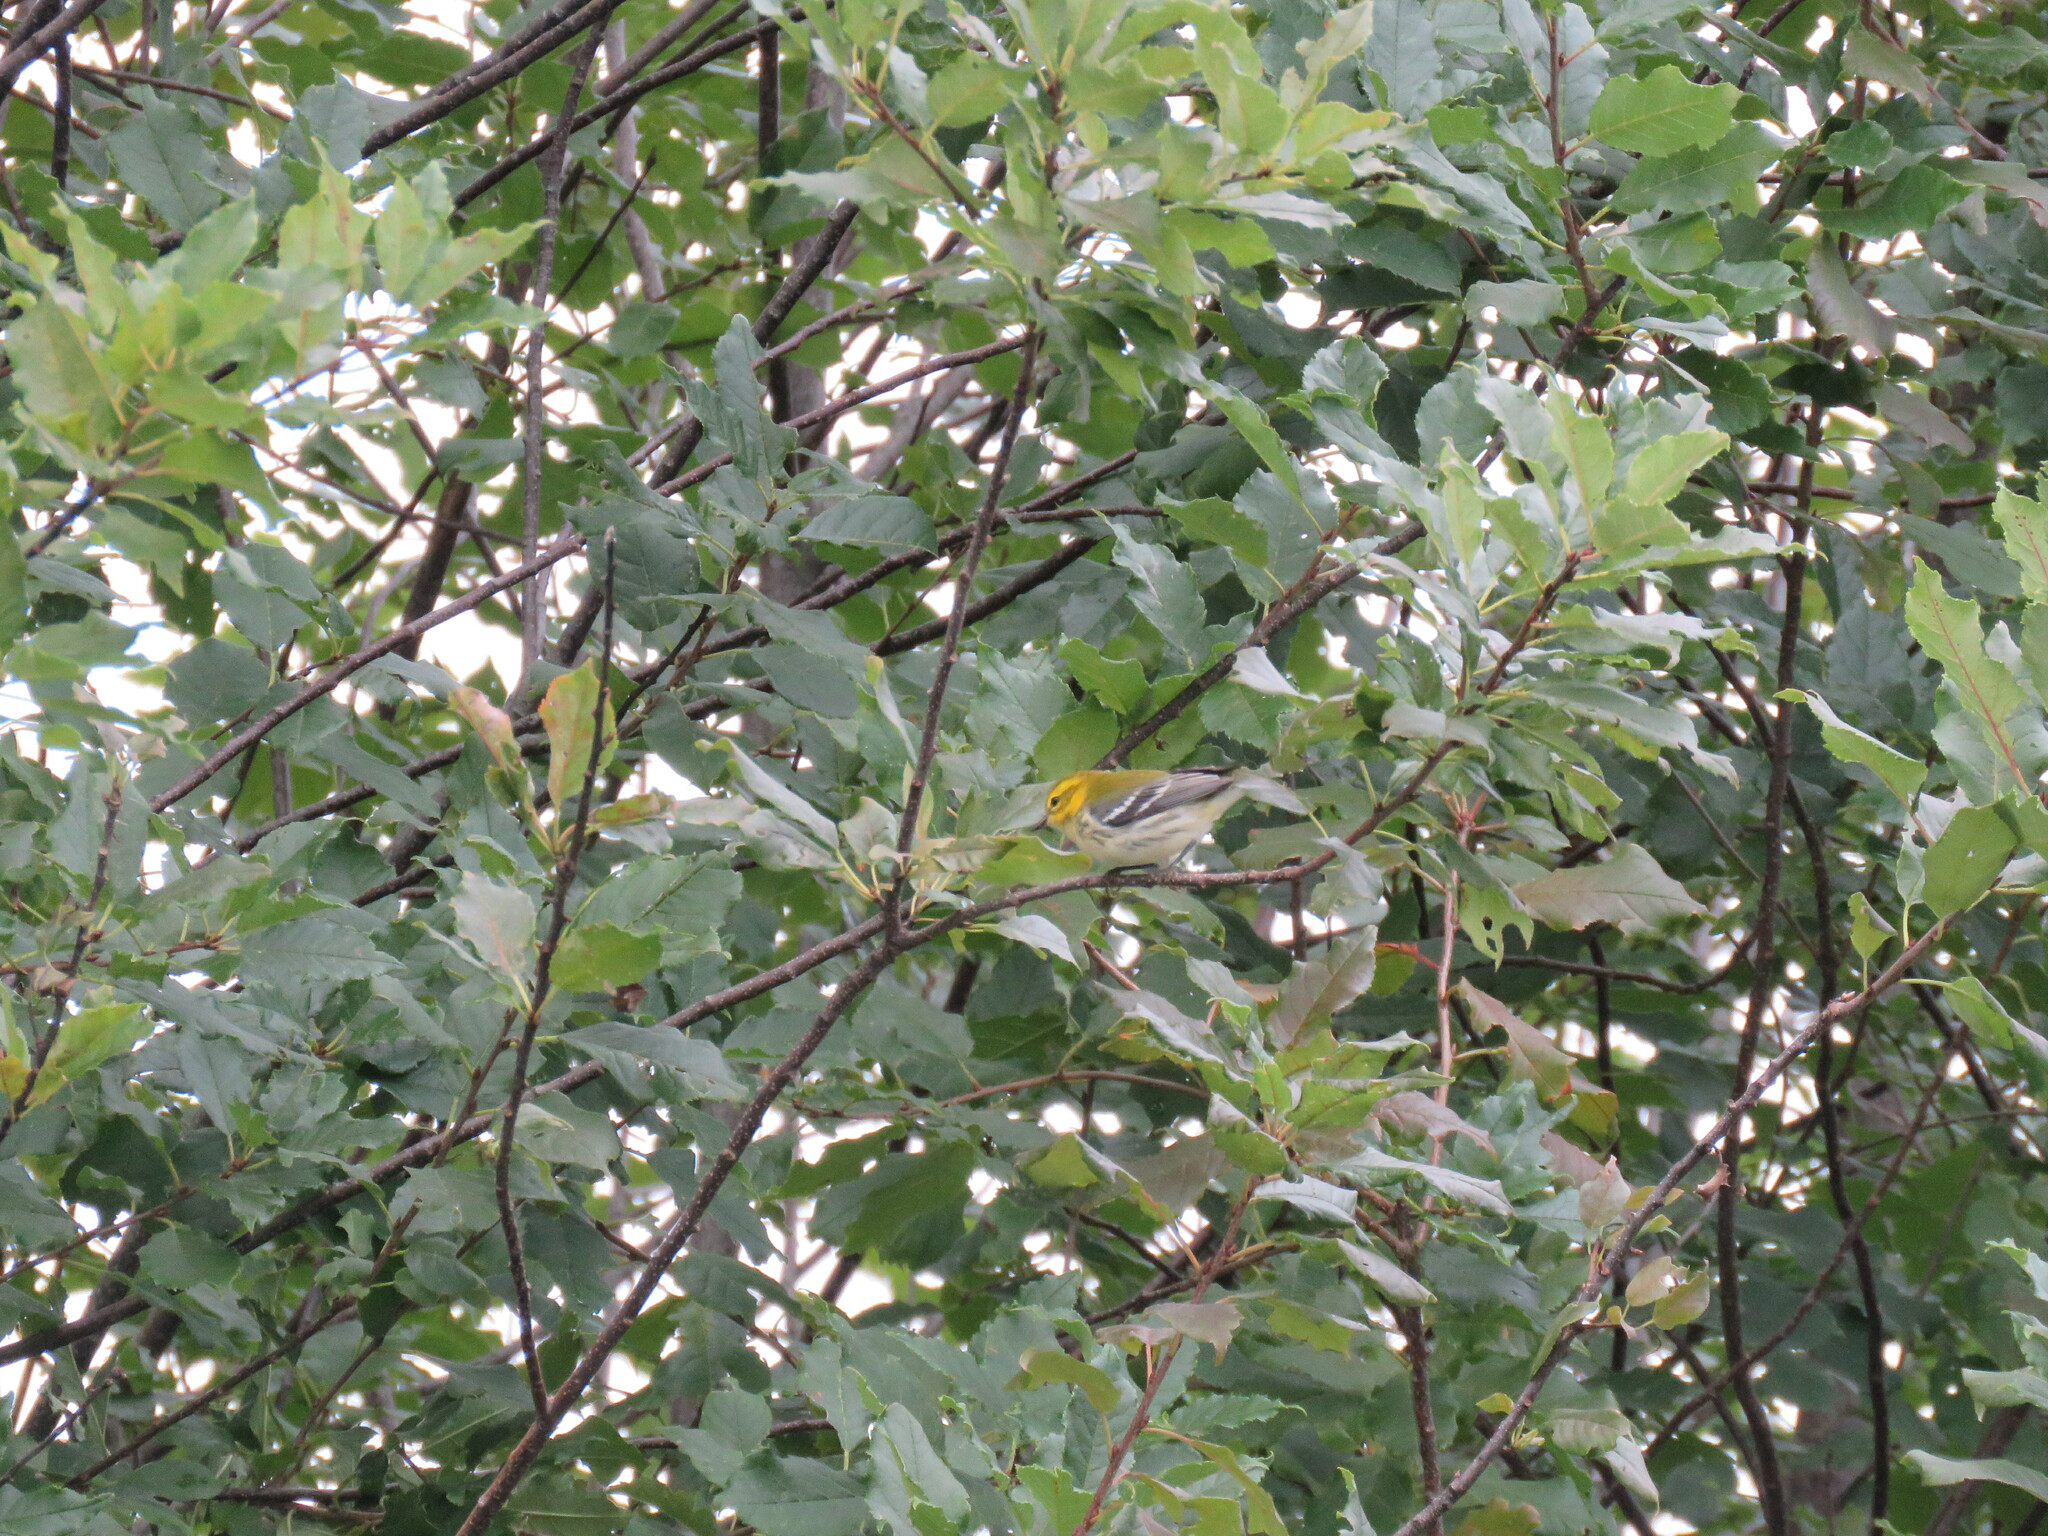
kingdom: Animalia
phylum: Chordata
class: Aves
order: Passeriformes
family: Parulidae
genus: Setophaga
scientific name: Setophaga virens
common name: Black-throated green warbler
